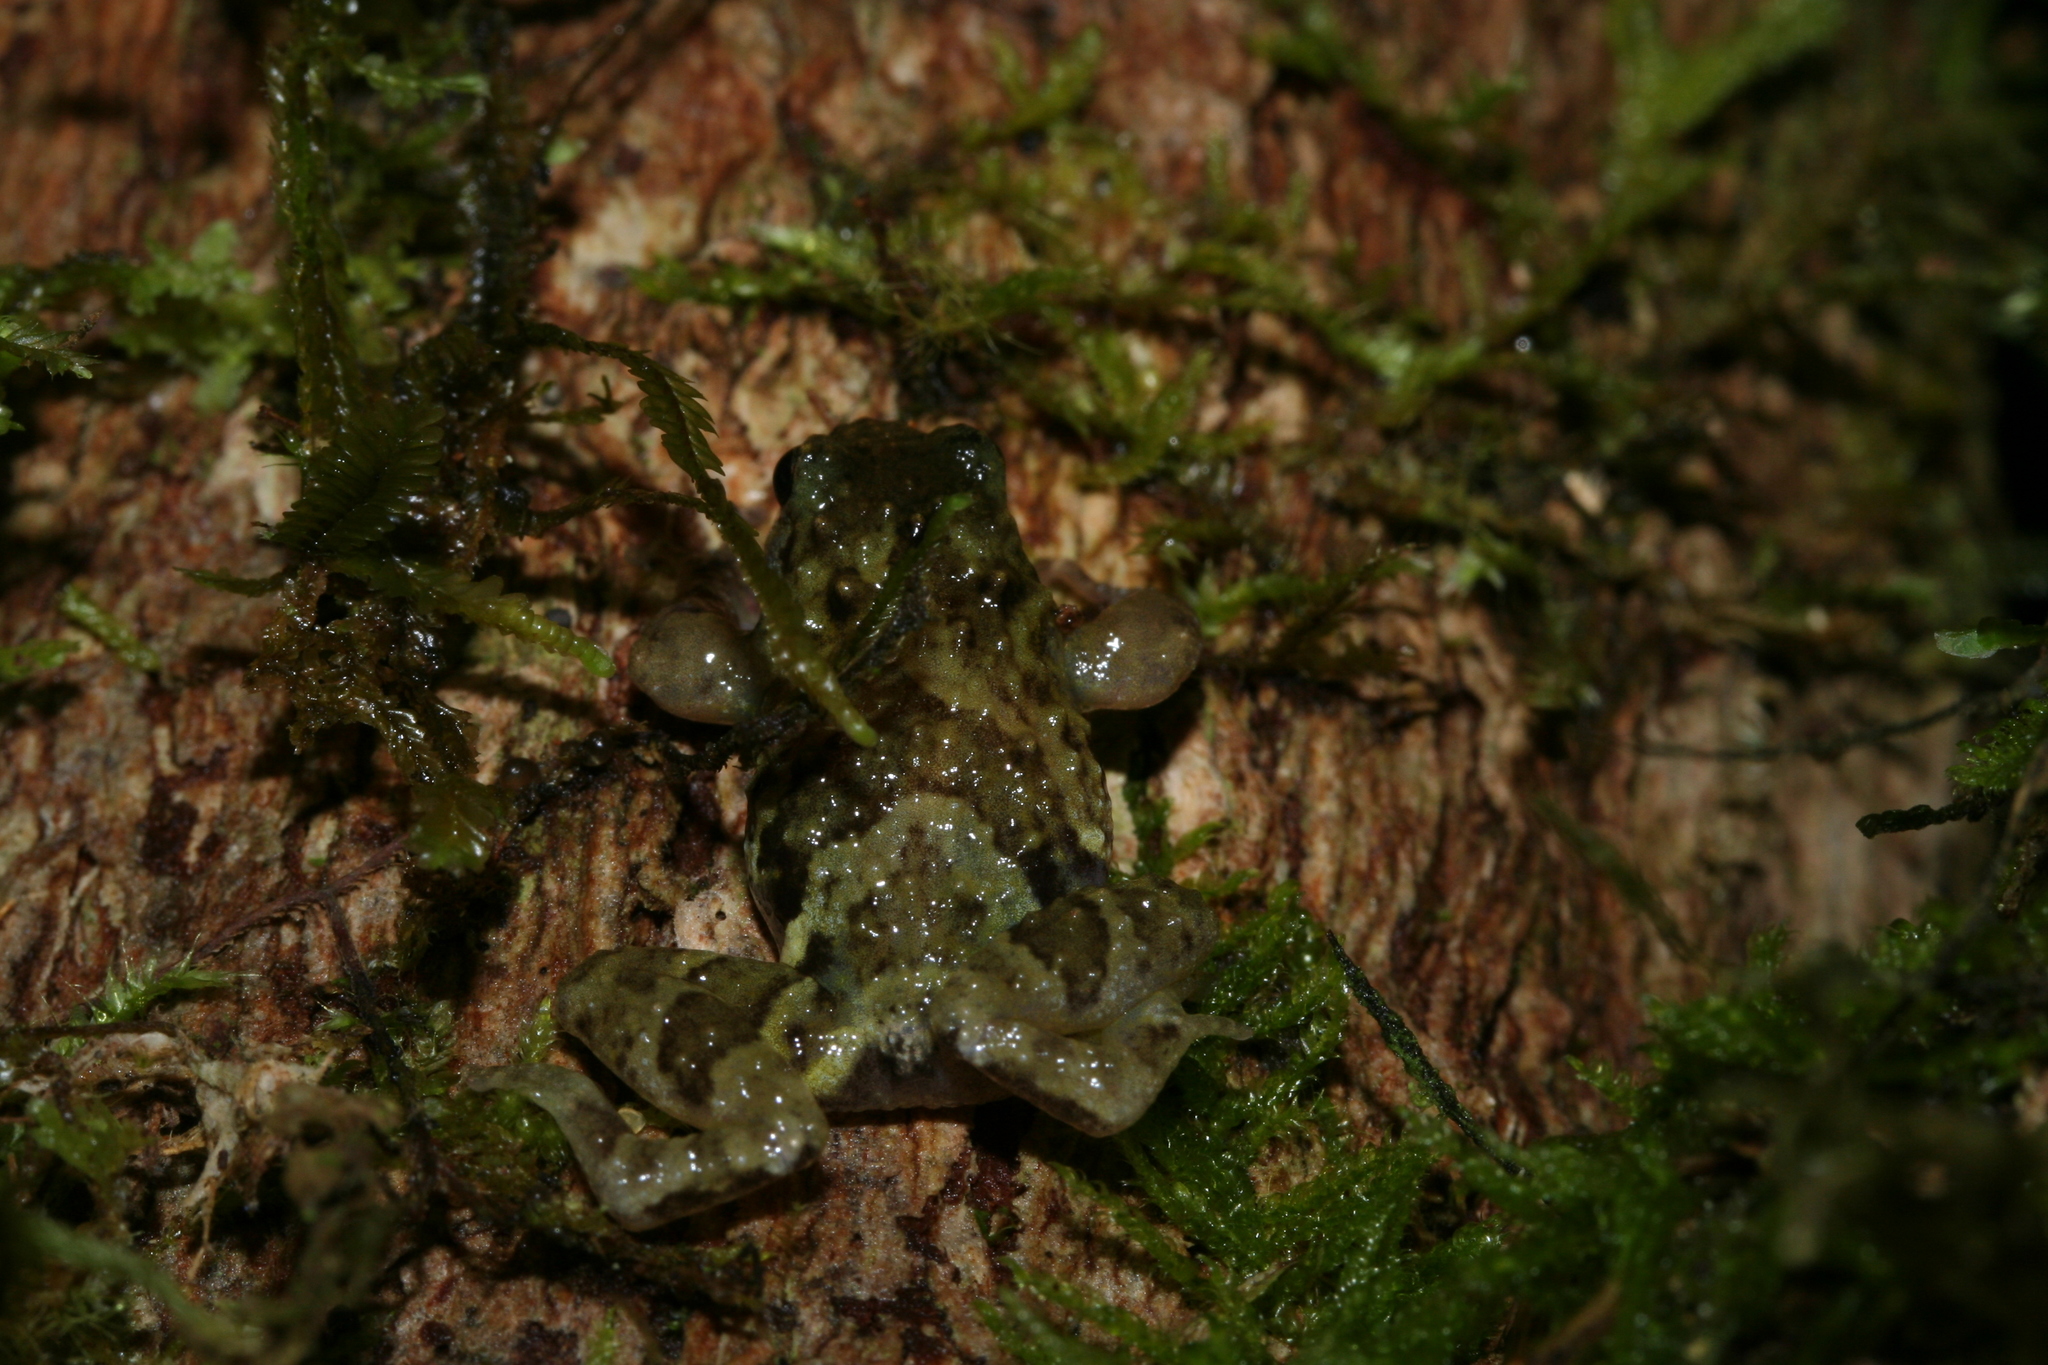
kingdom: Animalia
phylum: Chordata
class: Amphibia
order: Anura
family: Microhylidae
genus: Anodonthyla
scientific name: Anodonthyla moramora
